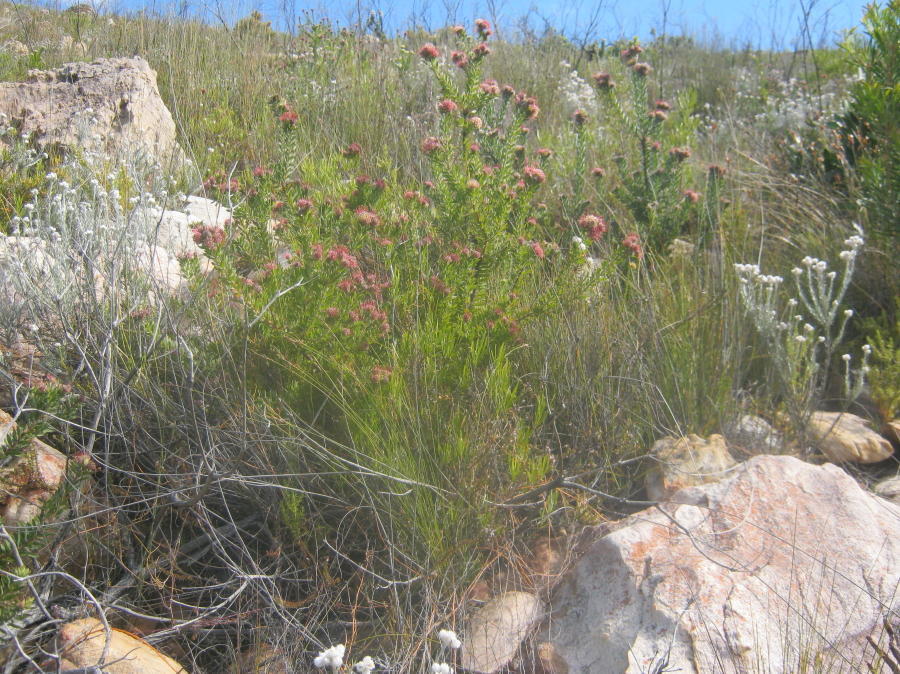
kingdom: Plantae
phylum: Tracheophyta
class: Magnoliopsida
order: Proteales
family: Proteaceae
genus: Leucospermum
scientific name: Leucospermum wittebergense
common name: Swartberg pincushion
